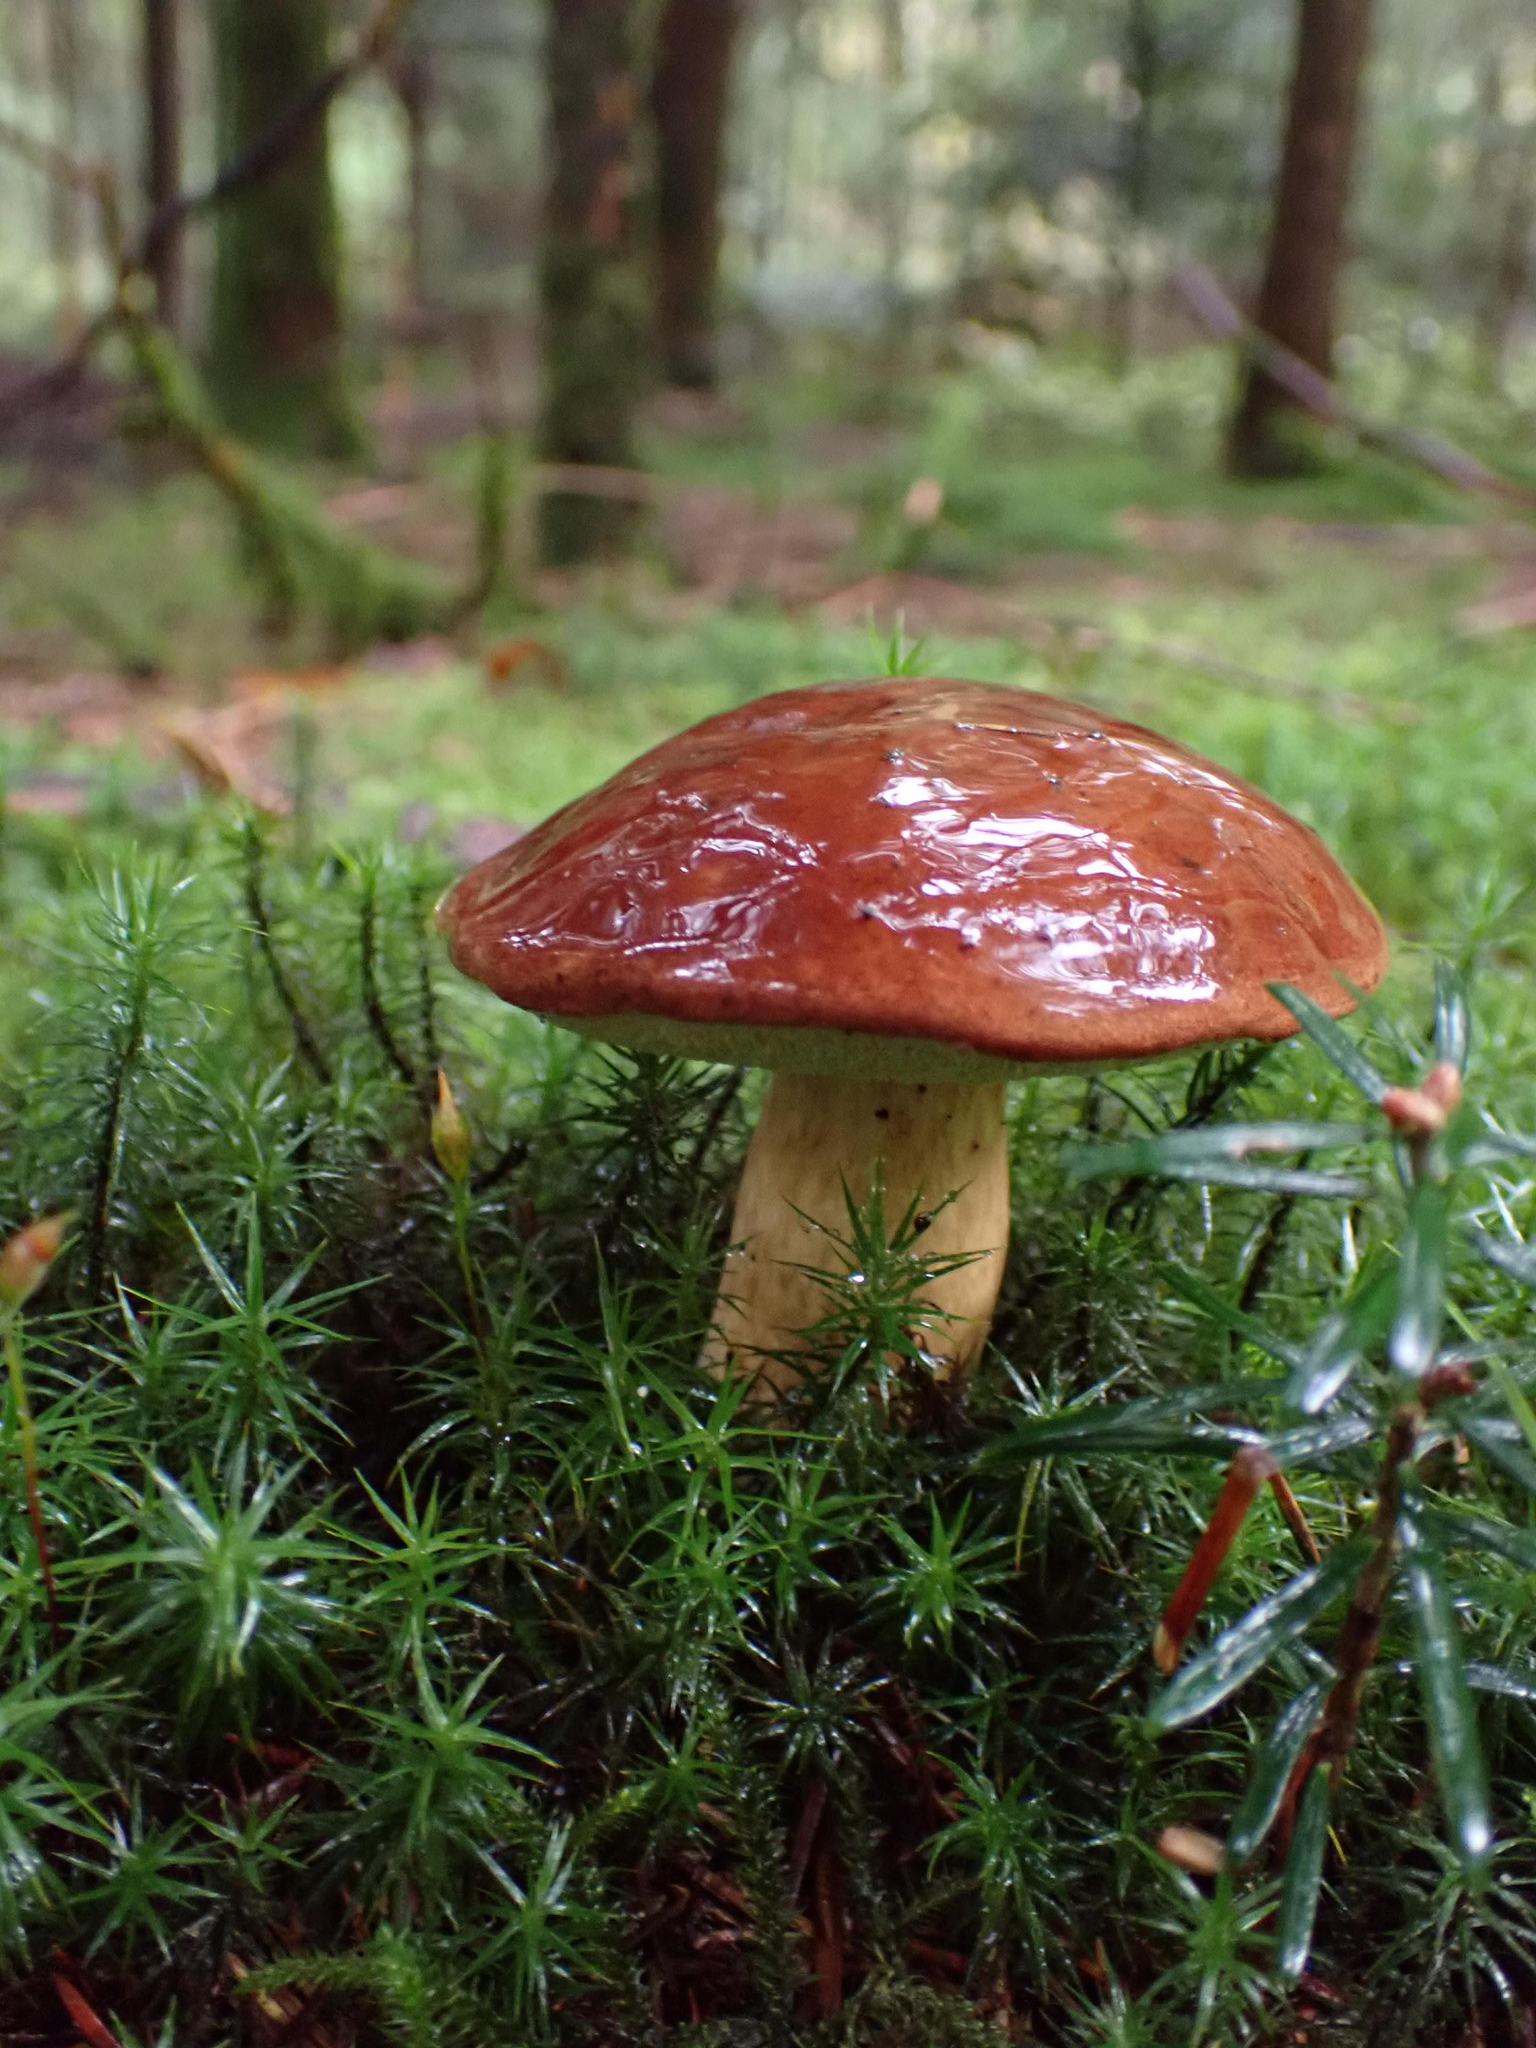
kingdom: Fungi
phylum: Basidiomycota
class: Agaricomycetes
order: Boletales
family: Boletaceae
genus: Imleria
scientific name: Imleria badia
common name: Bay bolete
